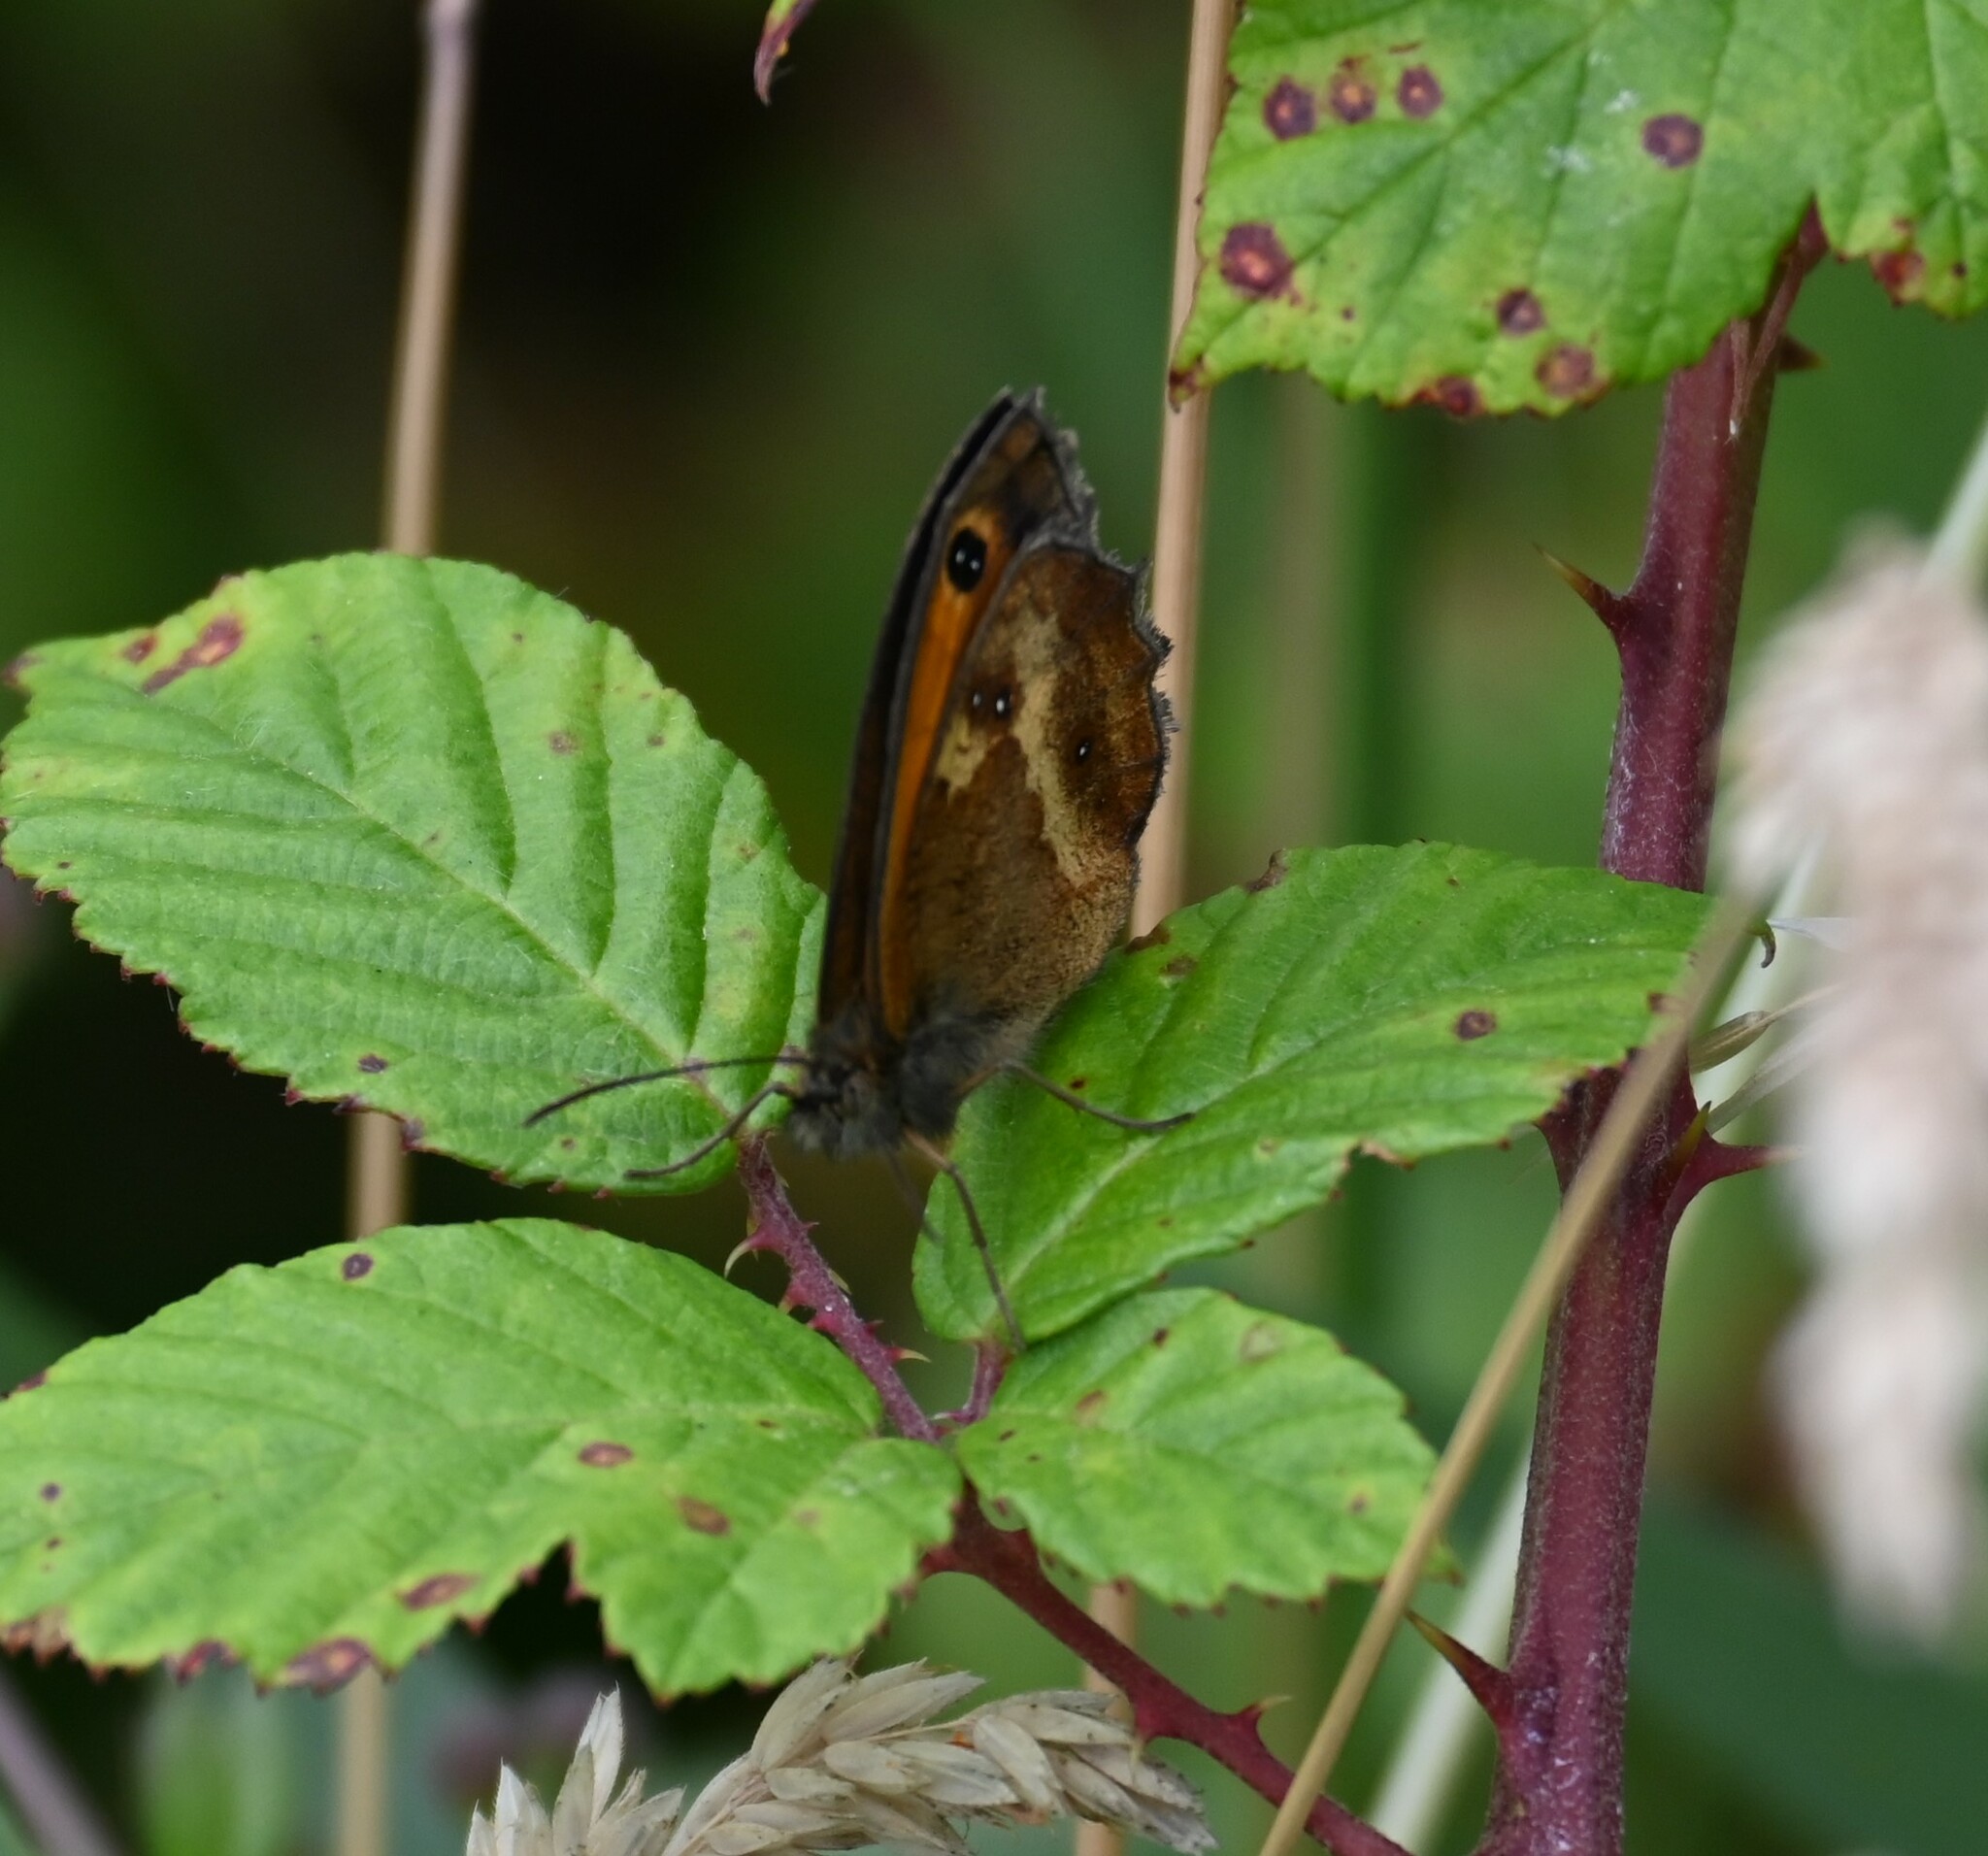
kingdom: Animalia
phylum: Arthropoda
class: Insecta
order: Lepidoptera
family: Nymphalidae
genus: Pyronia
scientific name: Pyronia tithonus
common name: Gatekeeper
